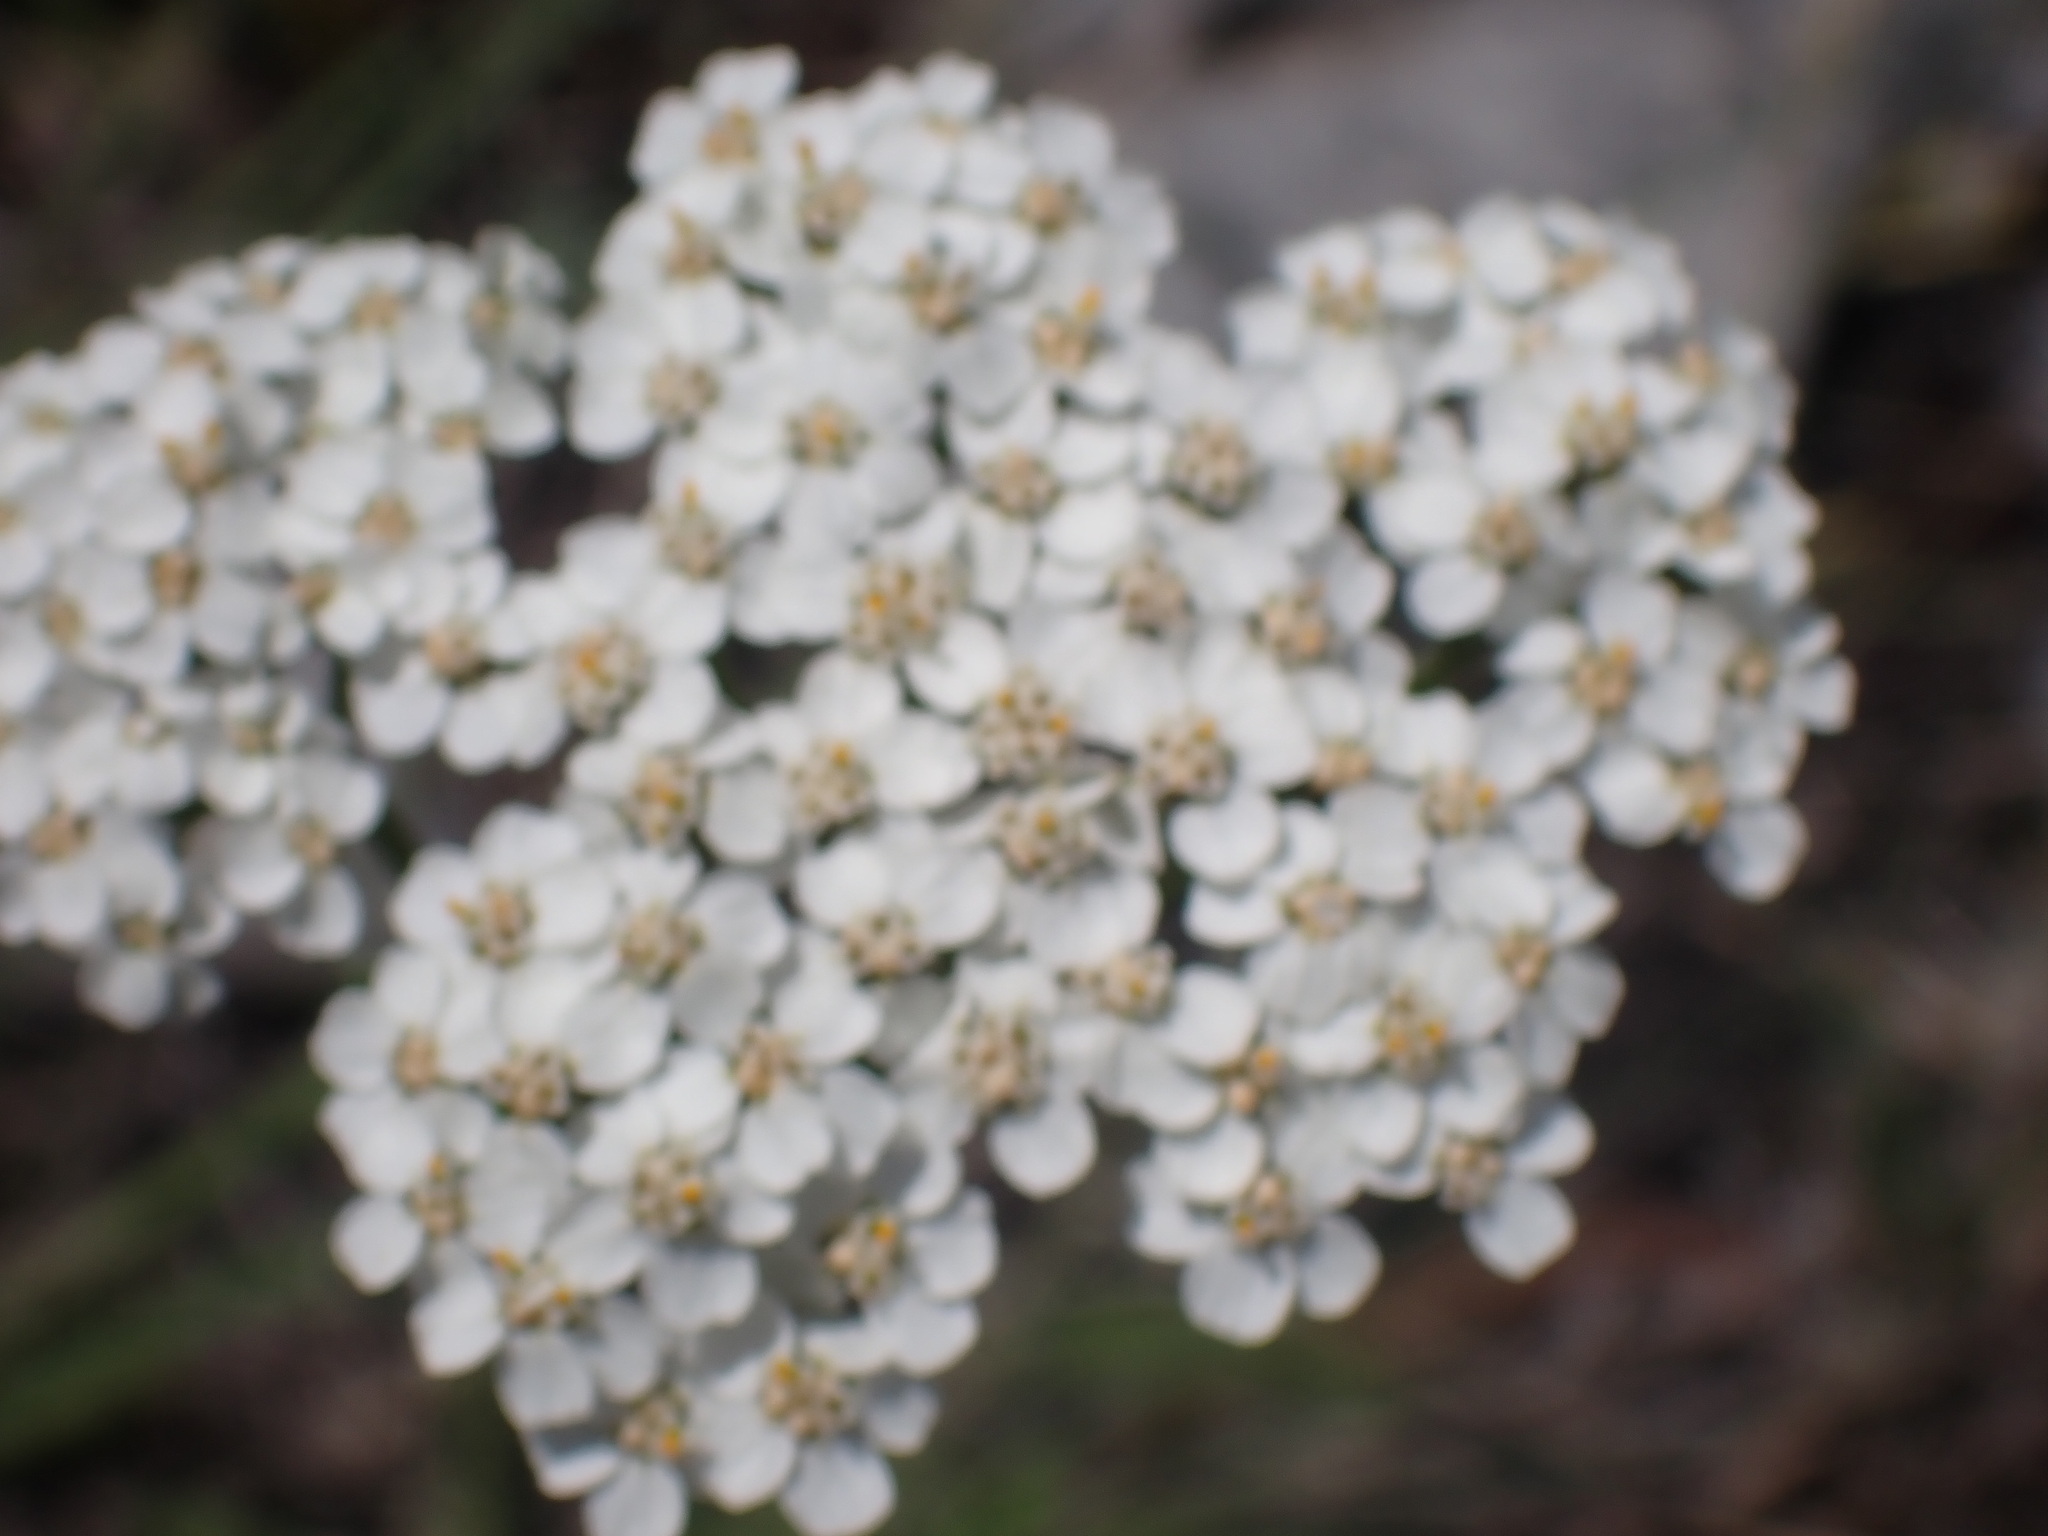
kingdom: Plantae
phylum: Tracheophyta
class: Magnoliopsida
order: Asterales
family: Asteraceae
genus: Achillea
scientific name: Achillea millefolium
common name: Yarrow
